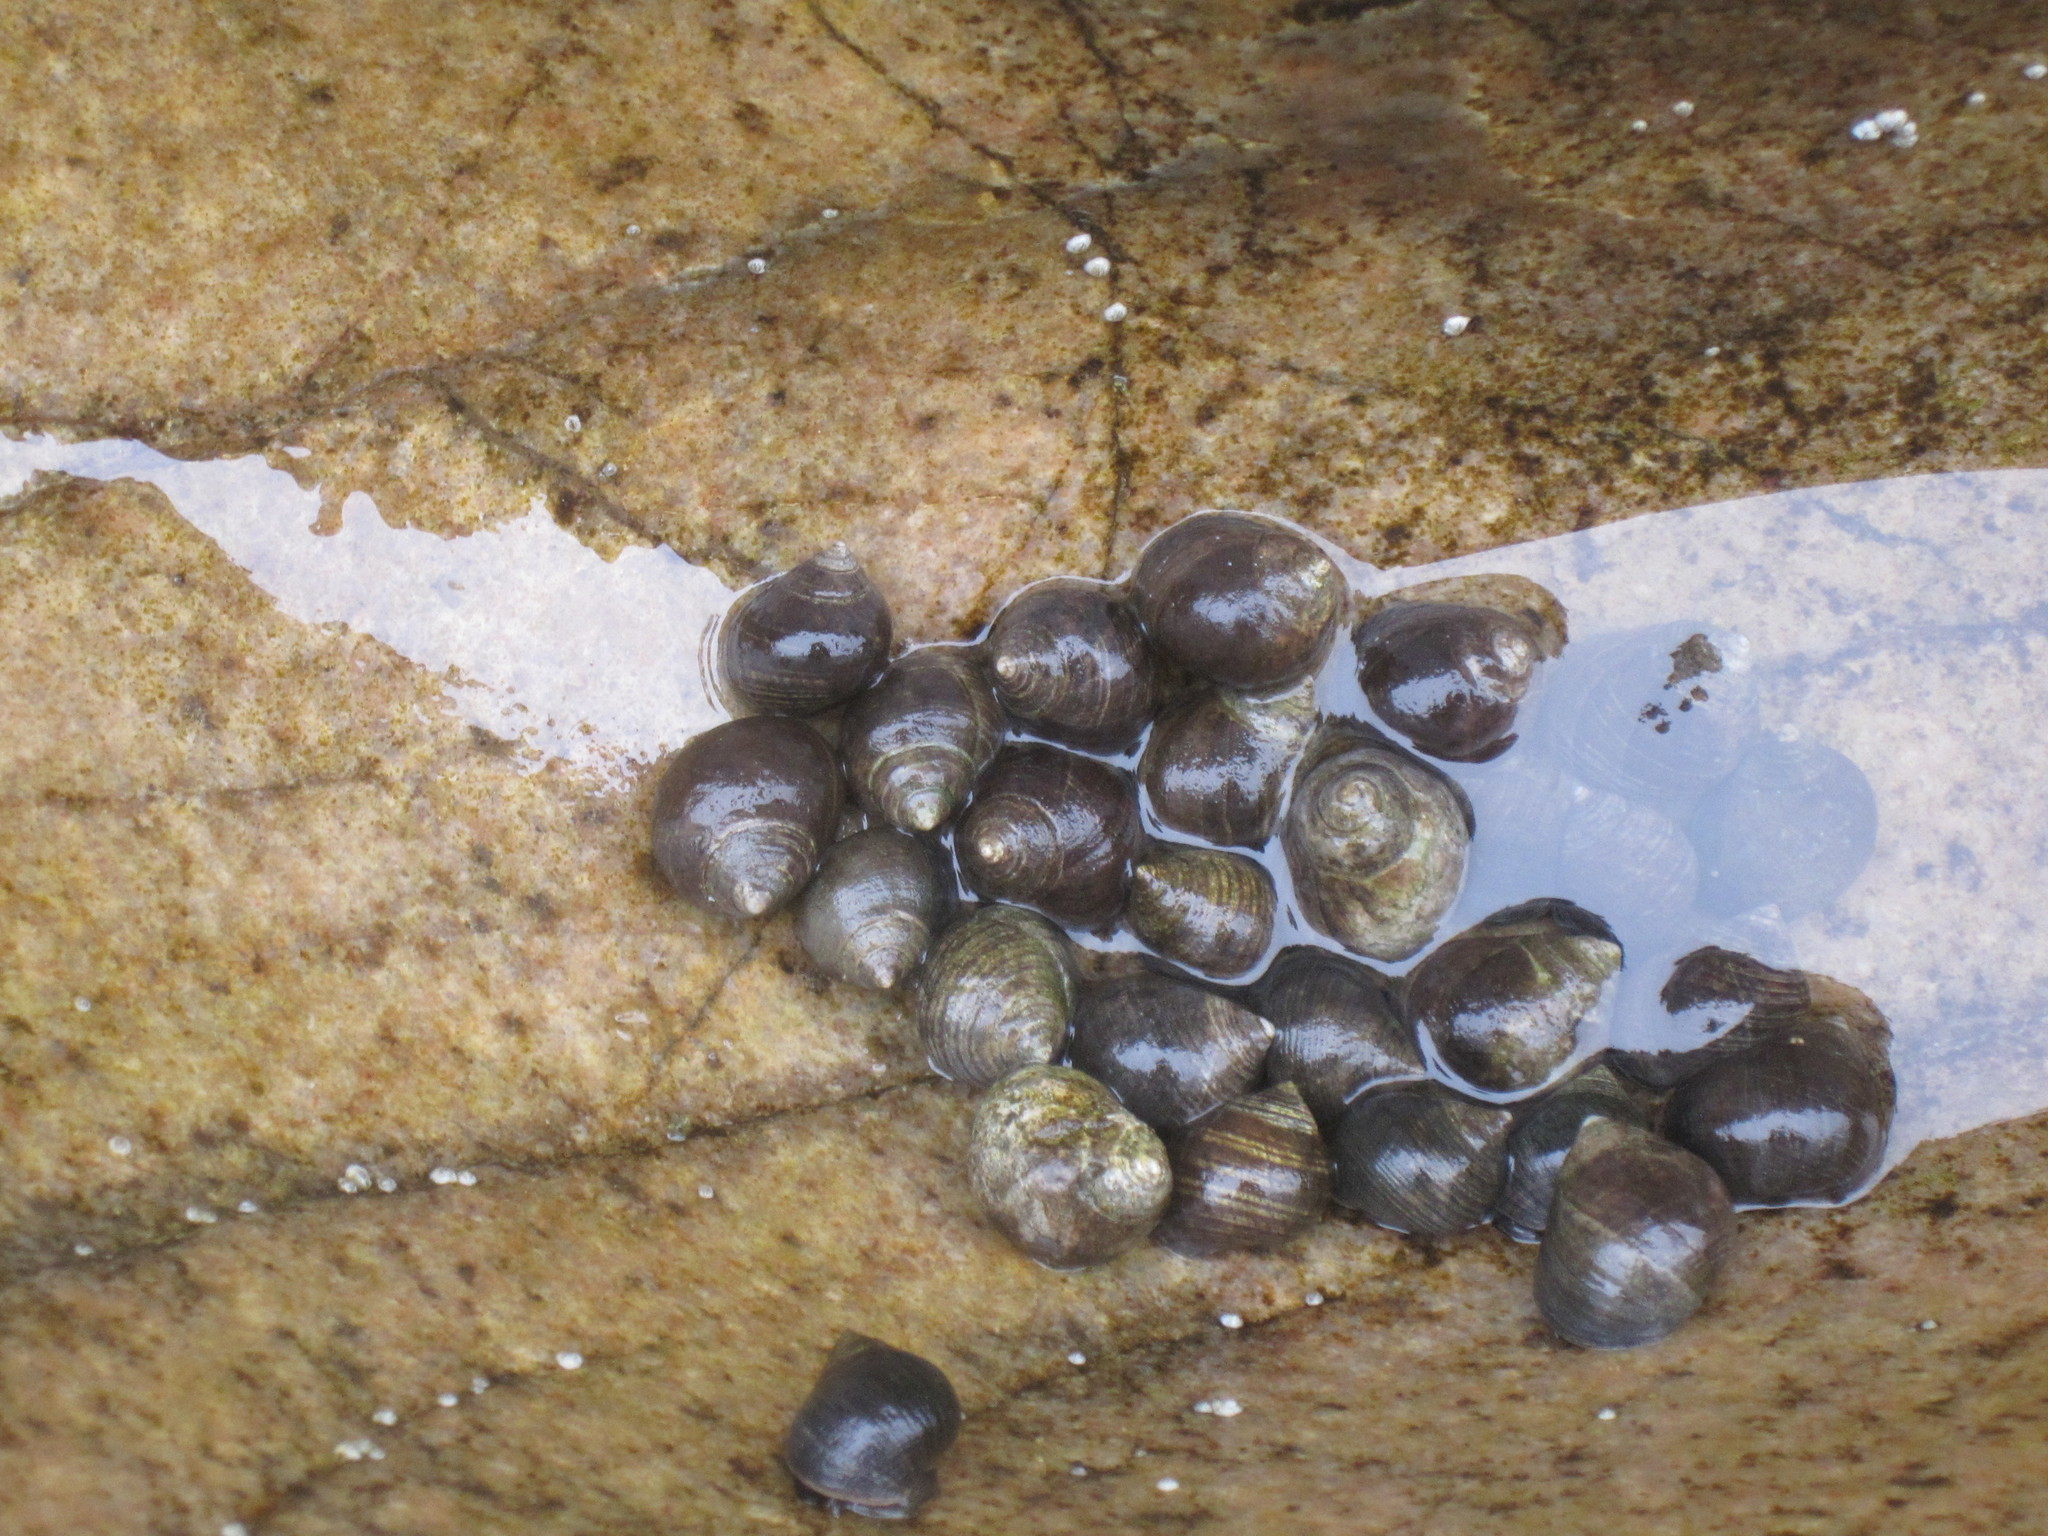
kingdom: Animalia
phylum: Mollusca
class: Gastropoda
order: Littorinimorpha
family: Littorinidae
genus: Littorina
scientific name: Littorina littorea
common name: Common periwinkle
